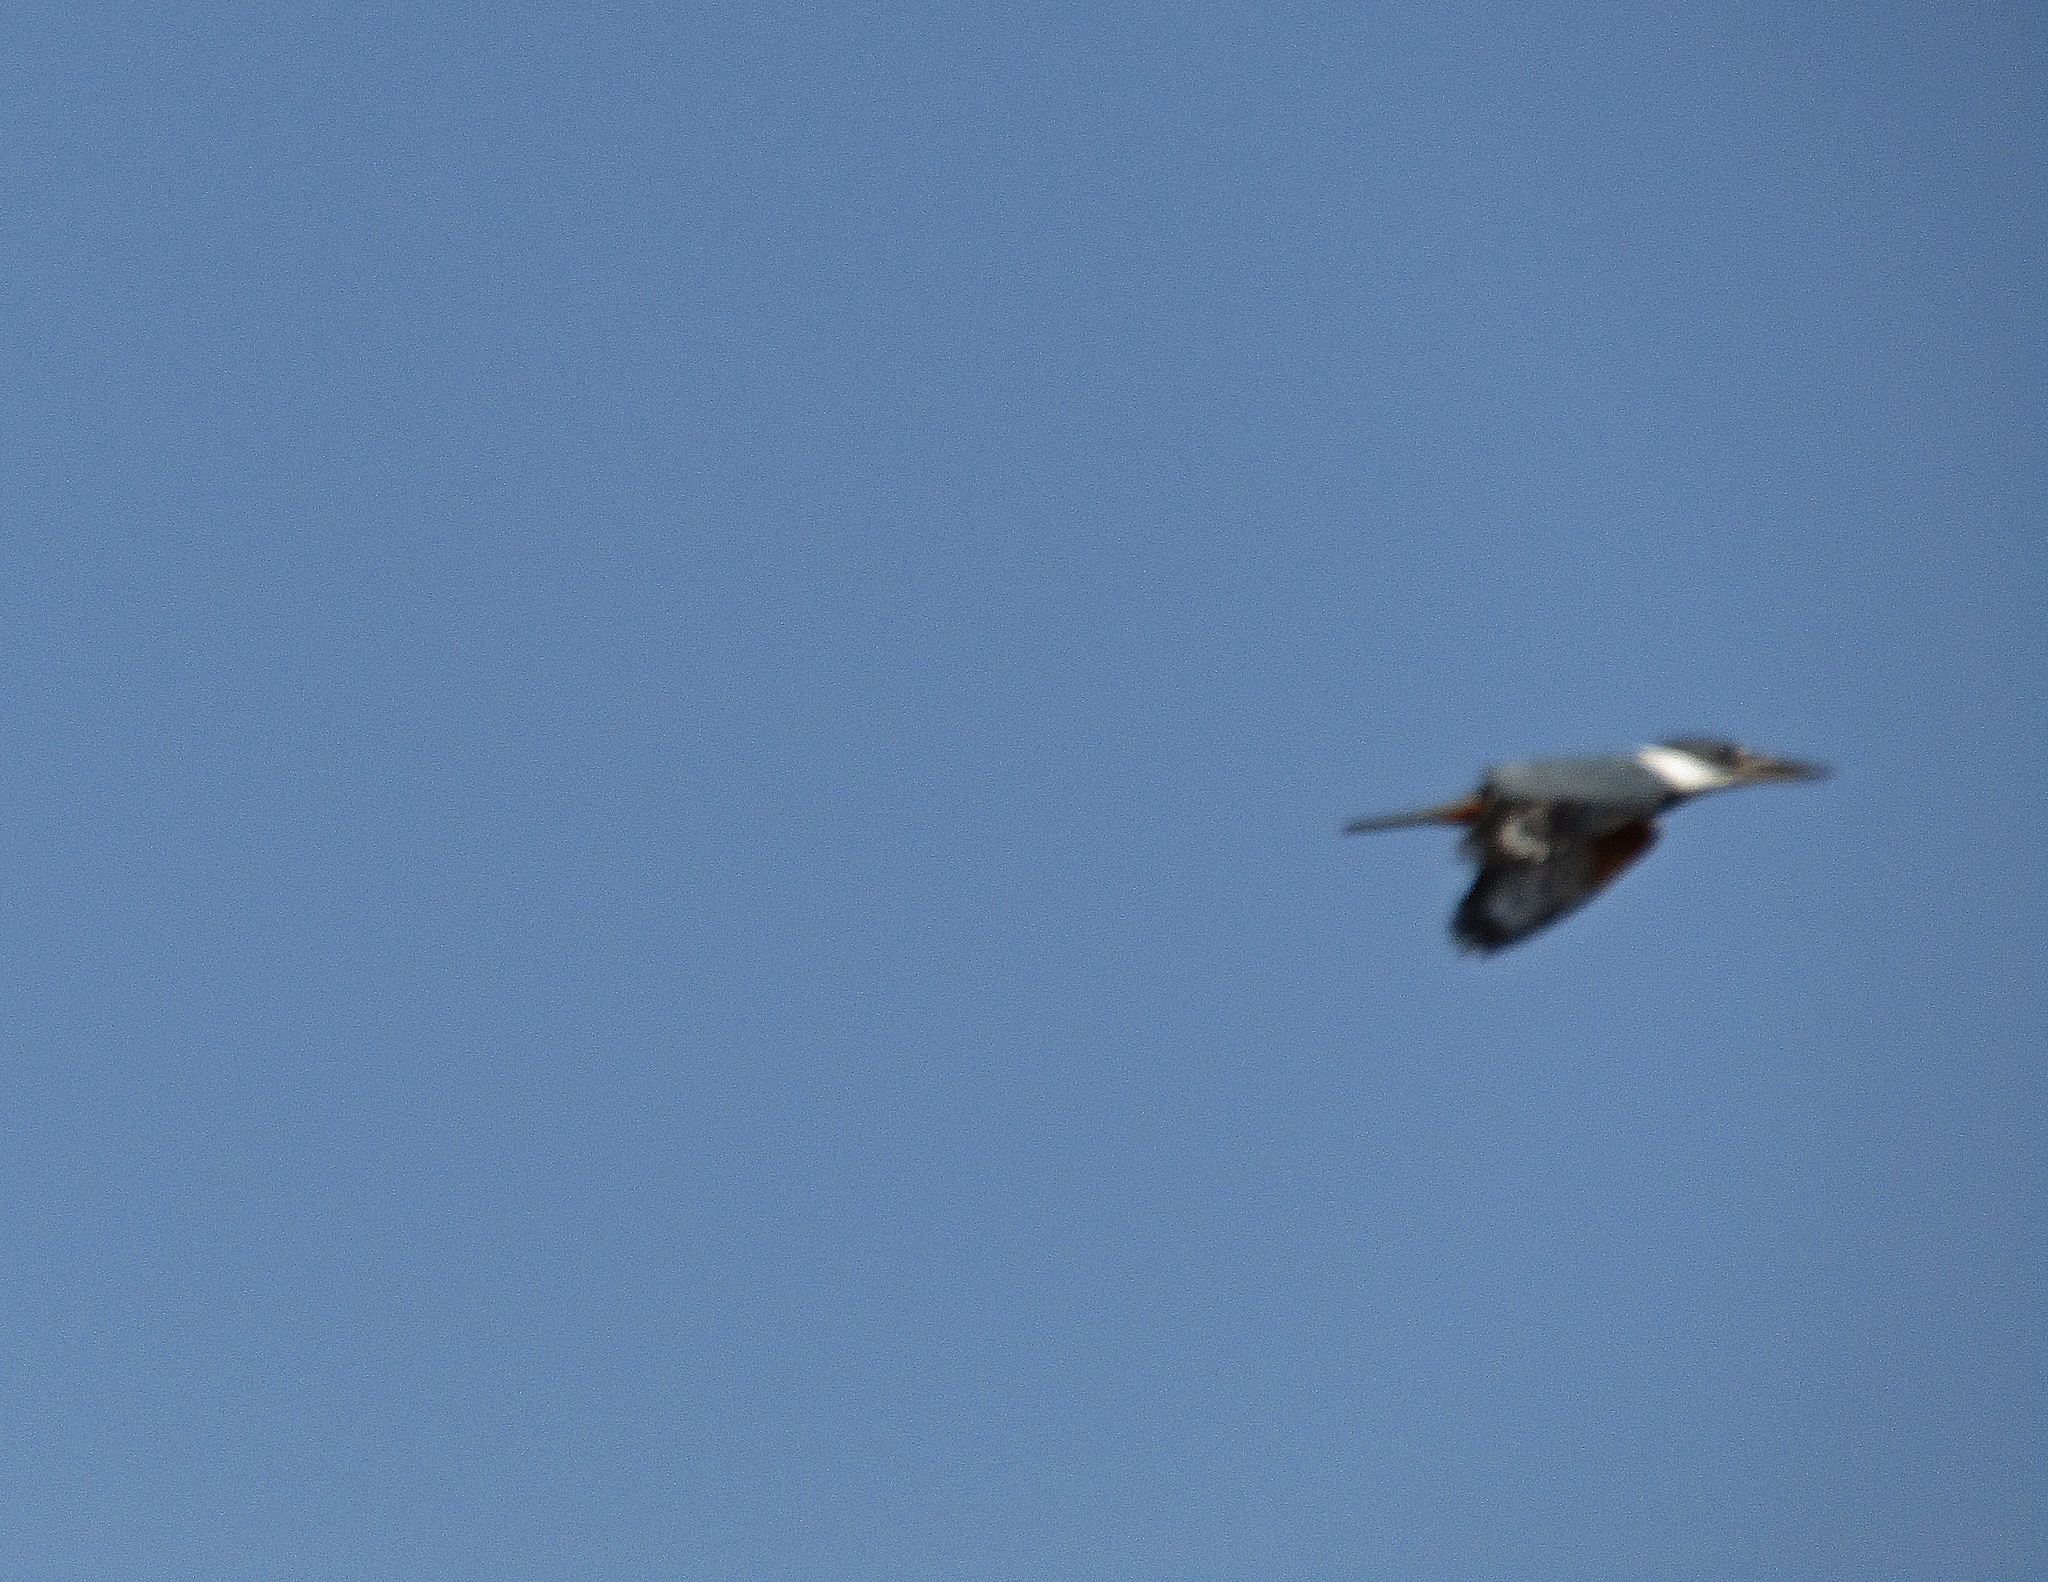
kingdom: Animalia
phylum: Chordata
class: Aves
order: Coraciiformes
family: Alcedinidae
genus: Megaceryle
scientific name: Megaceryle torquata
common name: Ringed kingfisher
